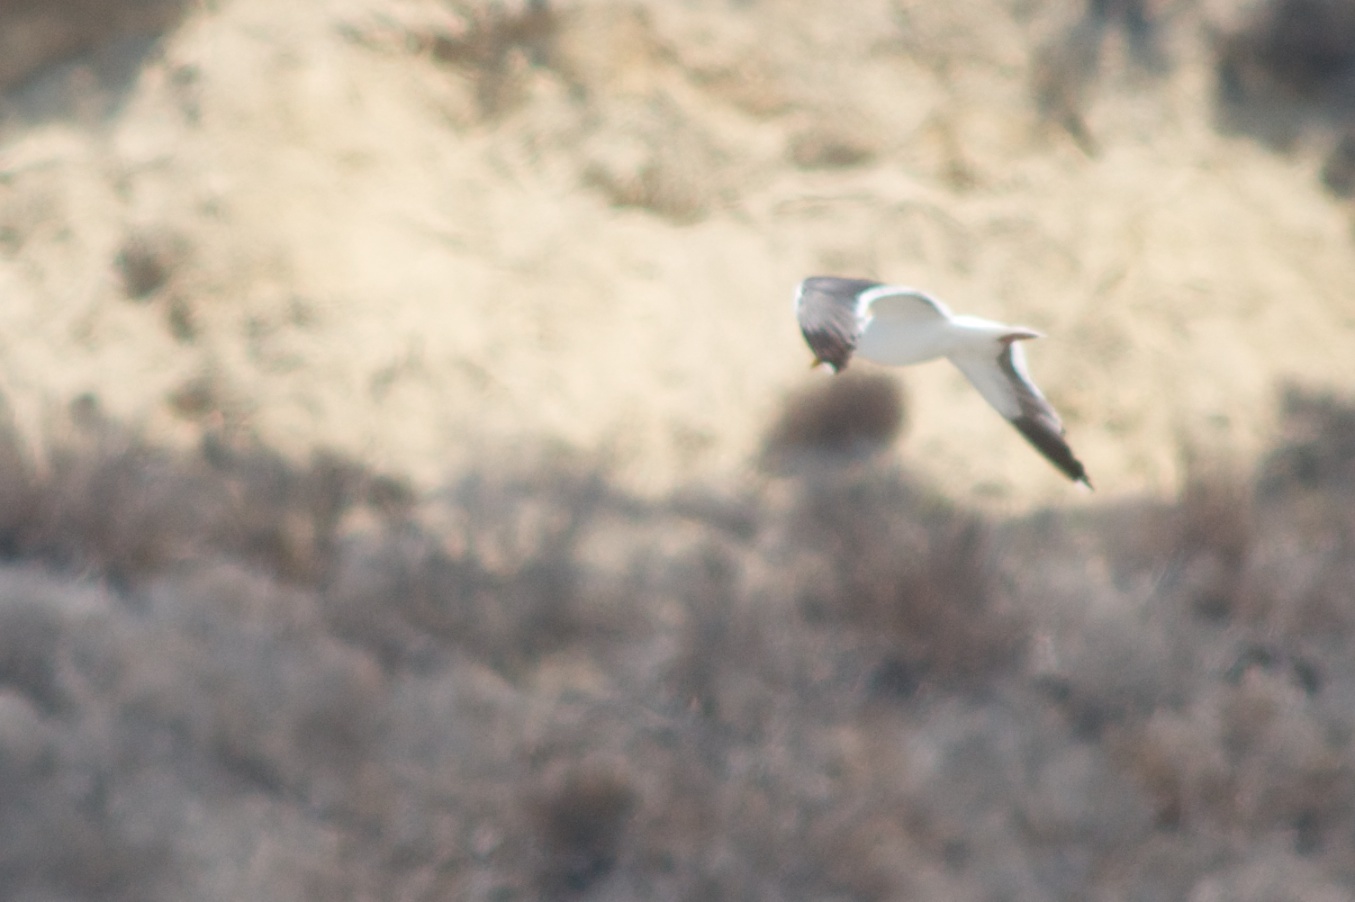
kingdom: Animalia
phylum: Chordata
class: Aves
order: Charadriiformes
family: Laridae
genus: Larus
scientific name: Larus occidentalis
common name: Western gull
